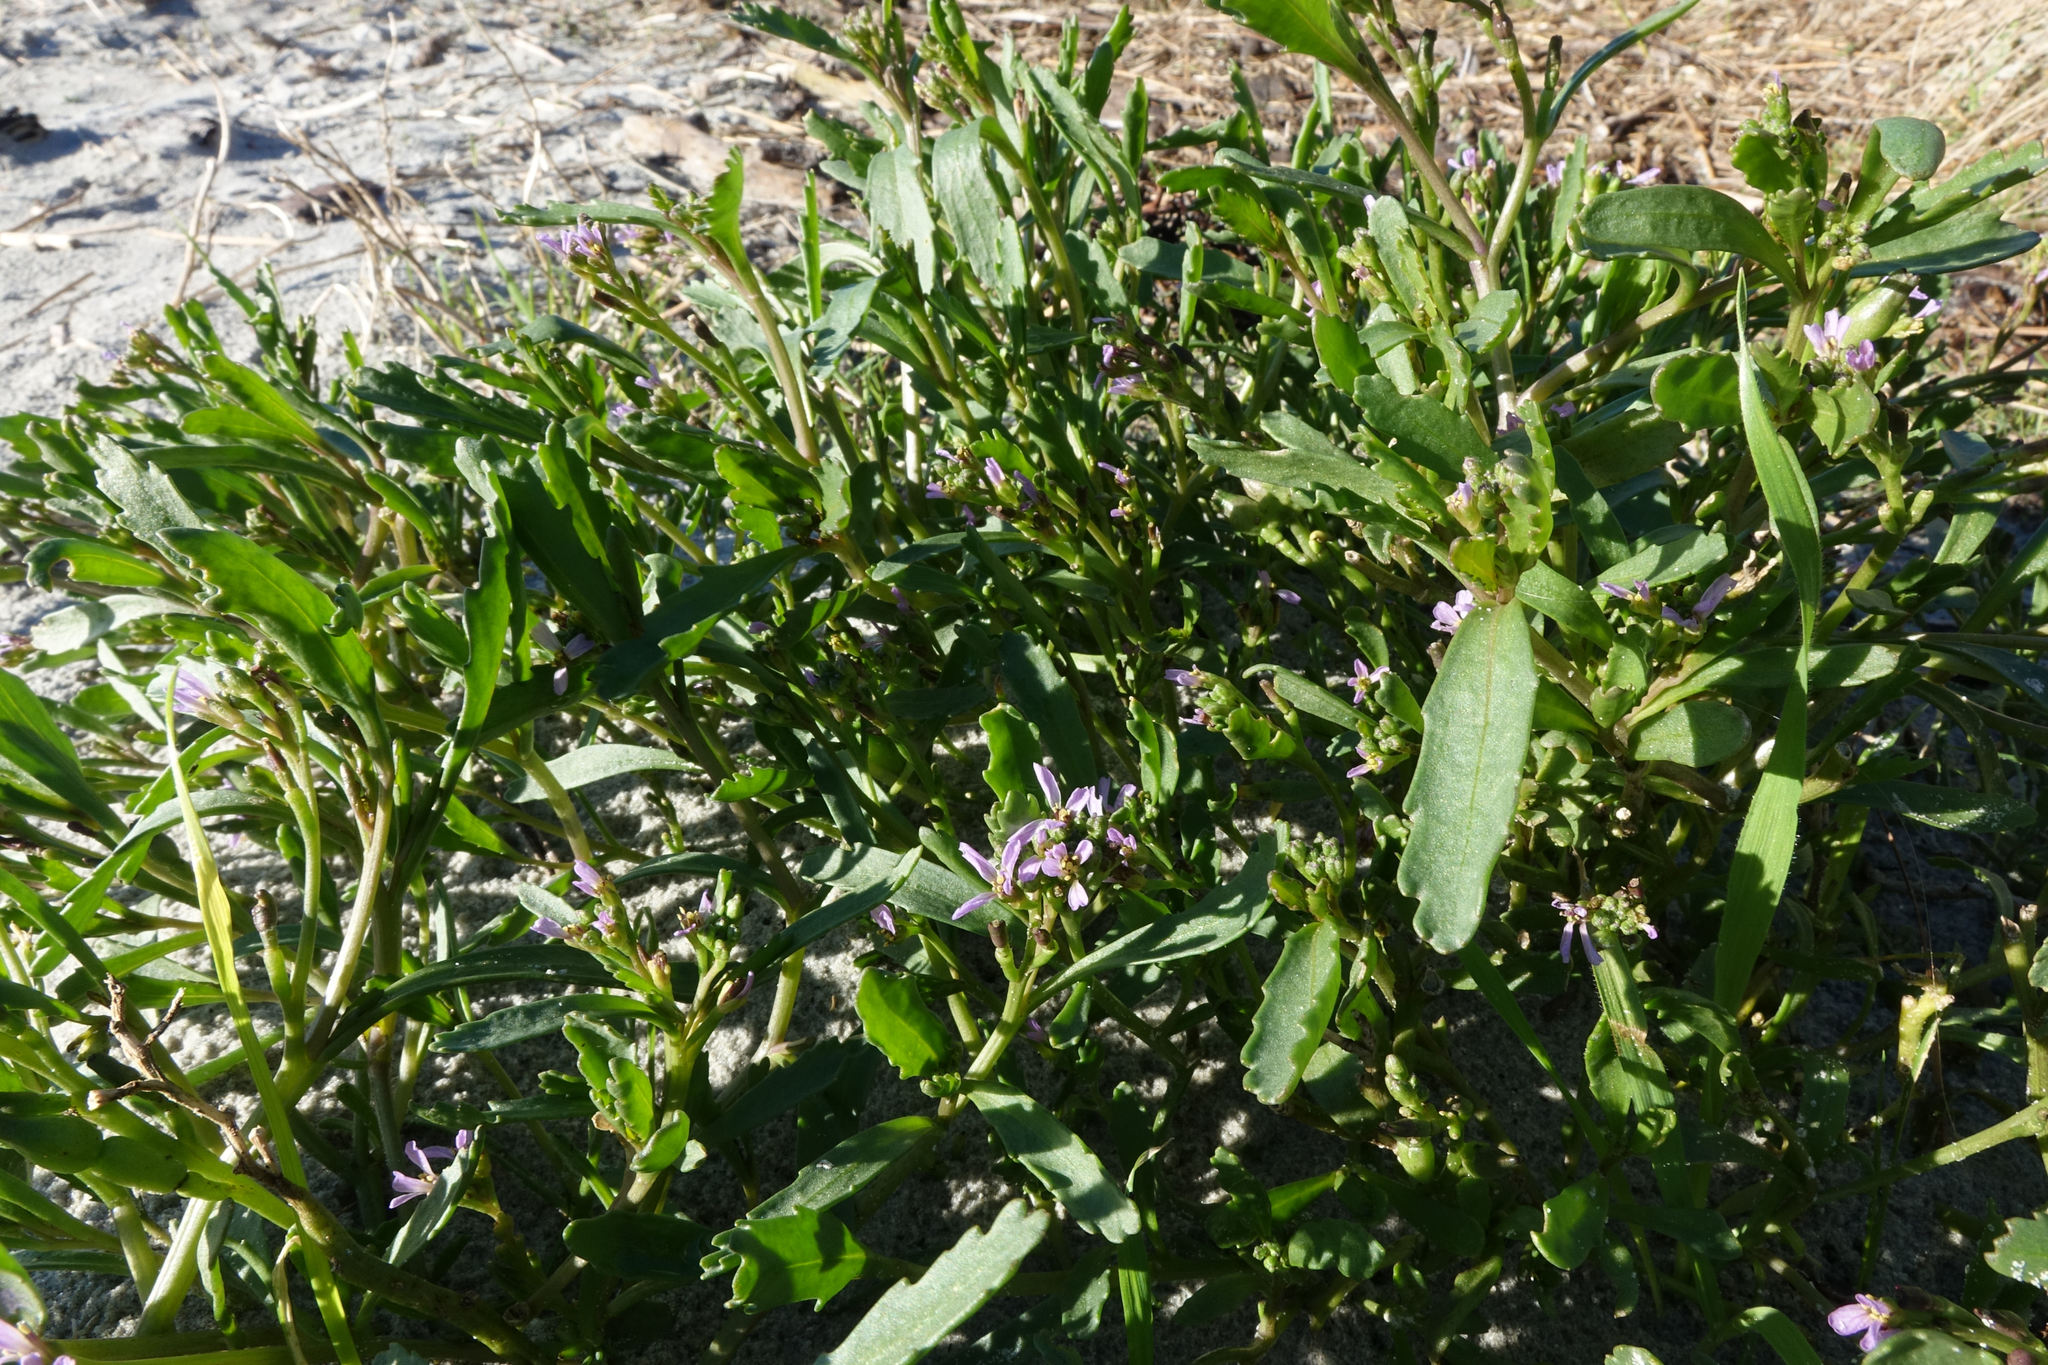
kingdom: Plantae
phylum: Tracheophyta
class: Magnoliopsida
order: Brassicales
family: Brassicaceae
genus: Cakile
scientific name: Cakile edentula
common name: American sea rocket
